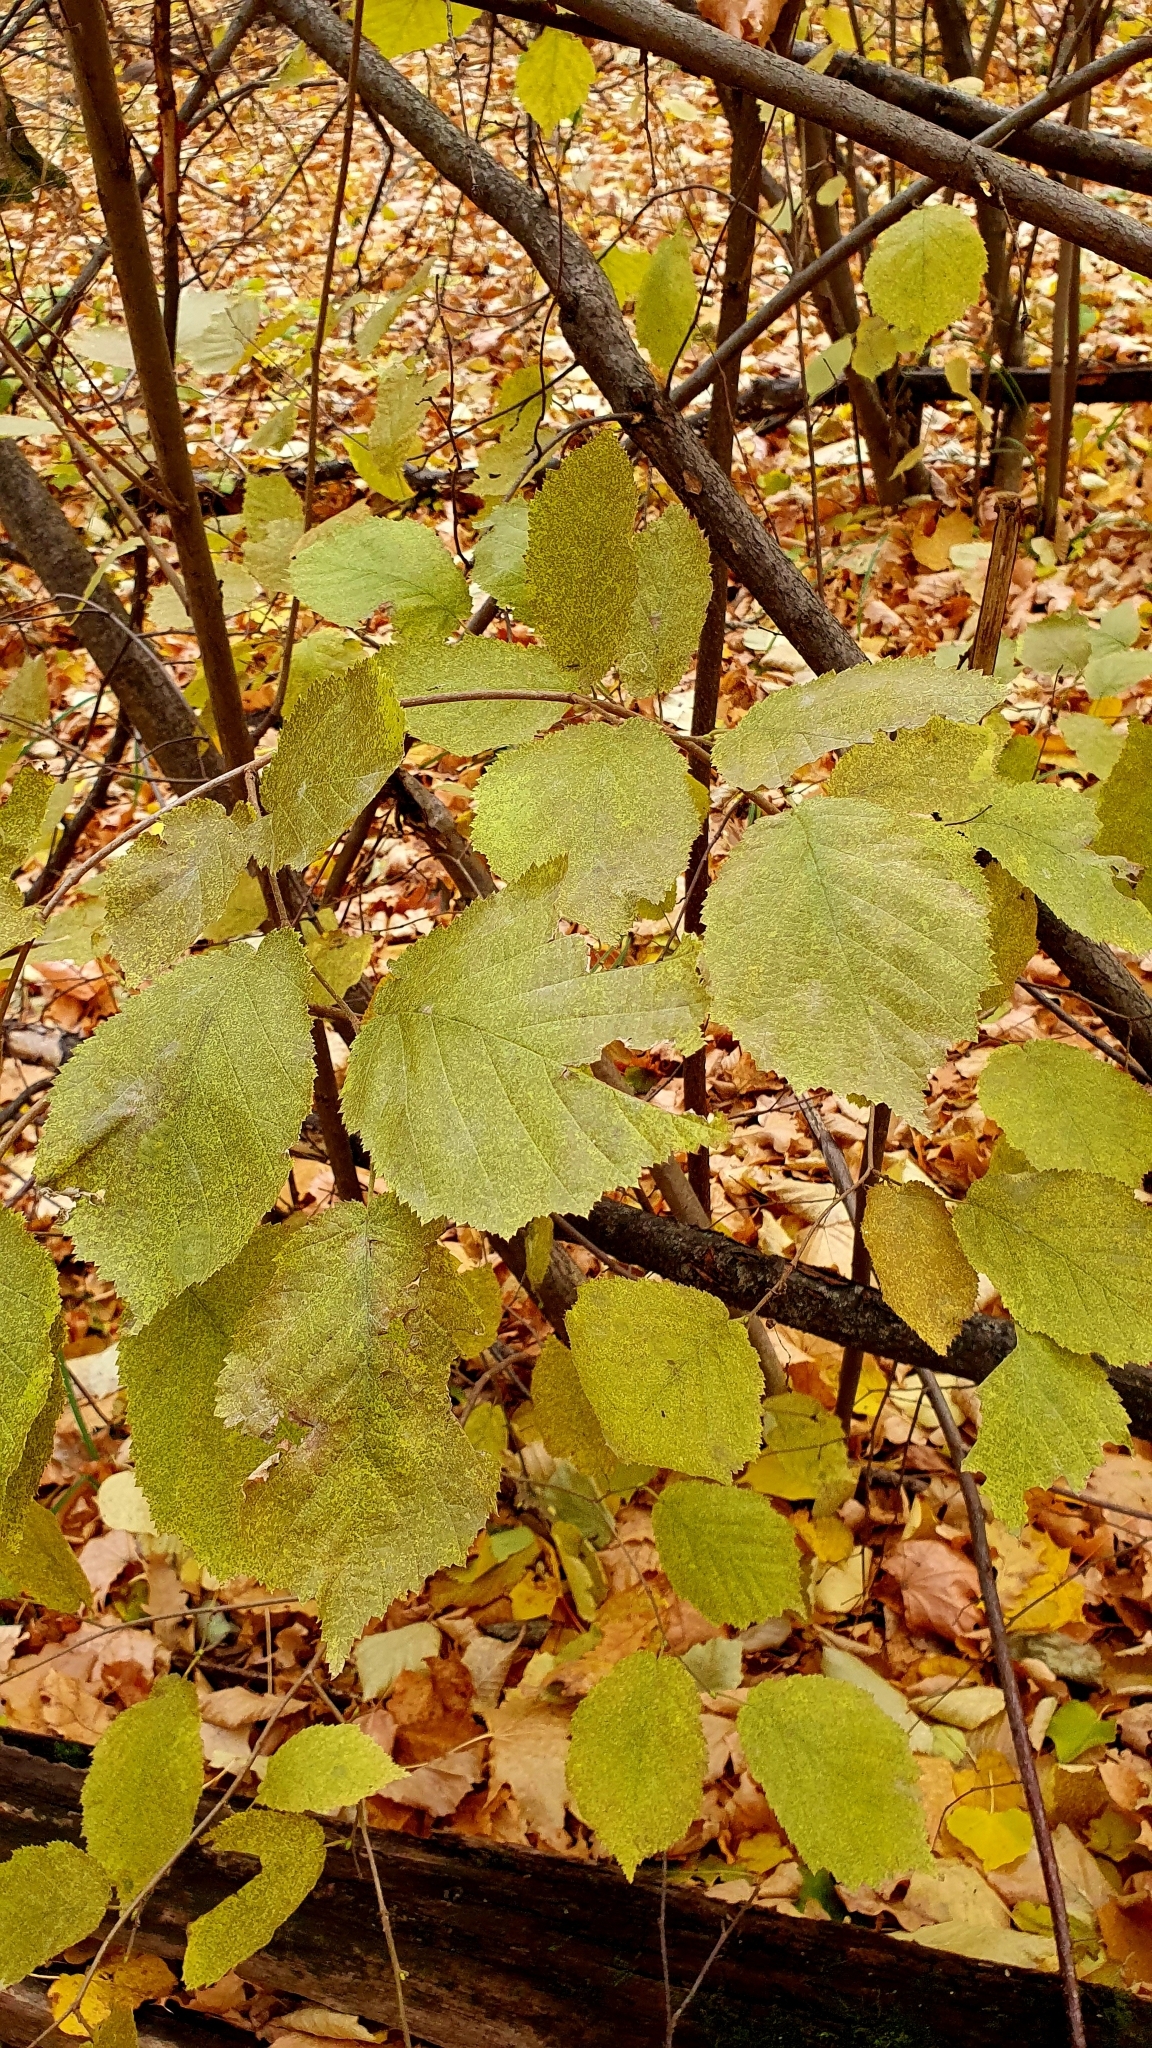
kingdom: Plantae
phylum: Tracheophyta
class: Magnoliopsida
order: Fagales
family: Betulaceae
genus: Corylus
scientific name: Corylus avellana
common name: European hazel
